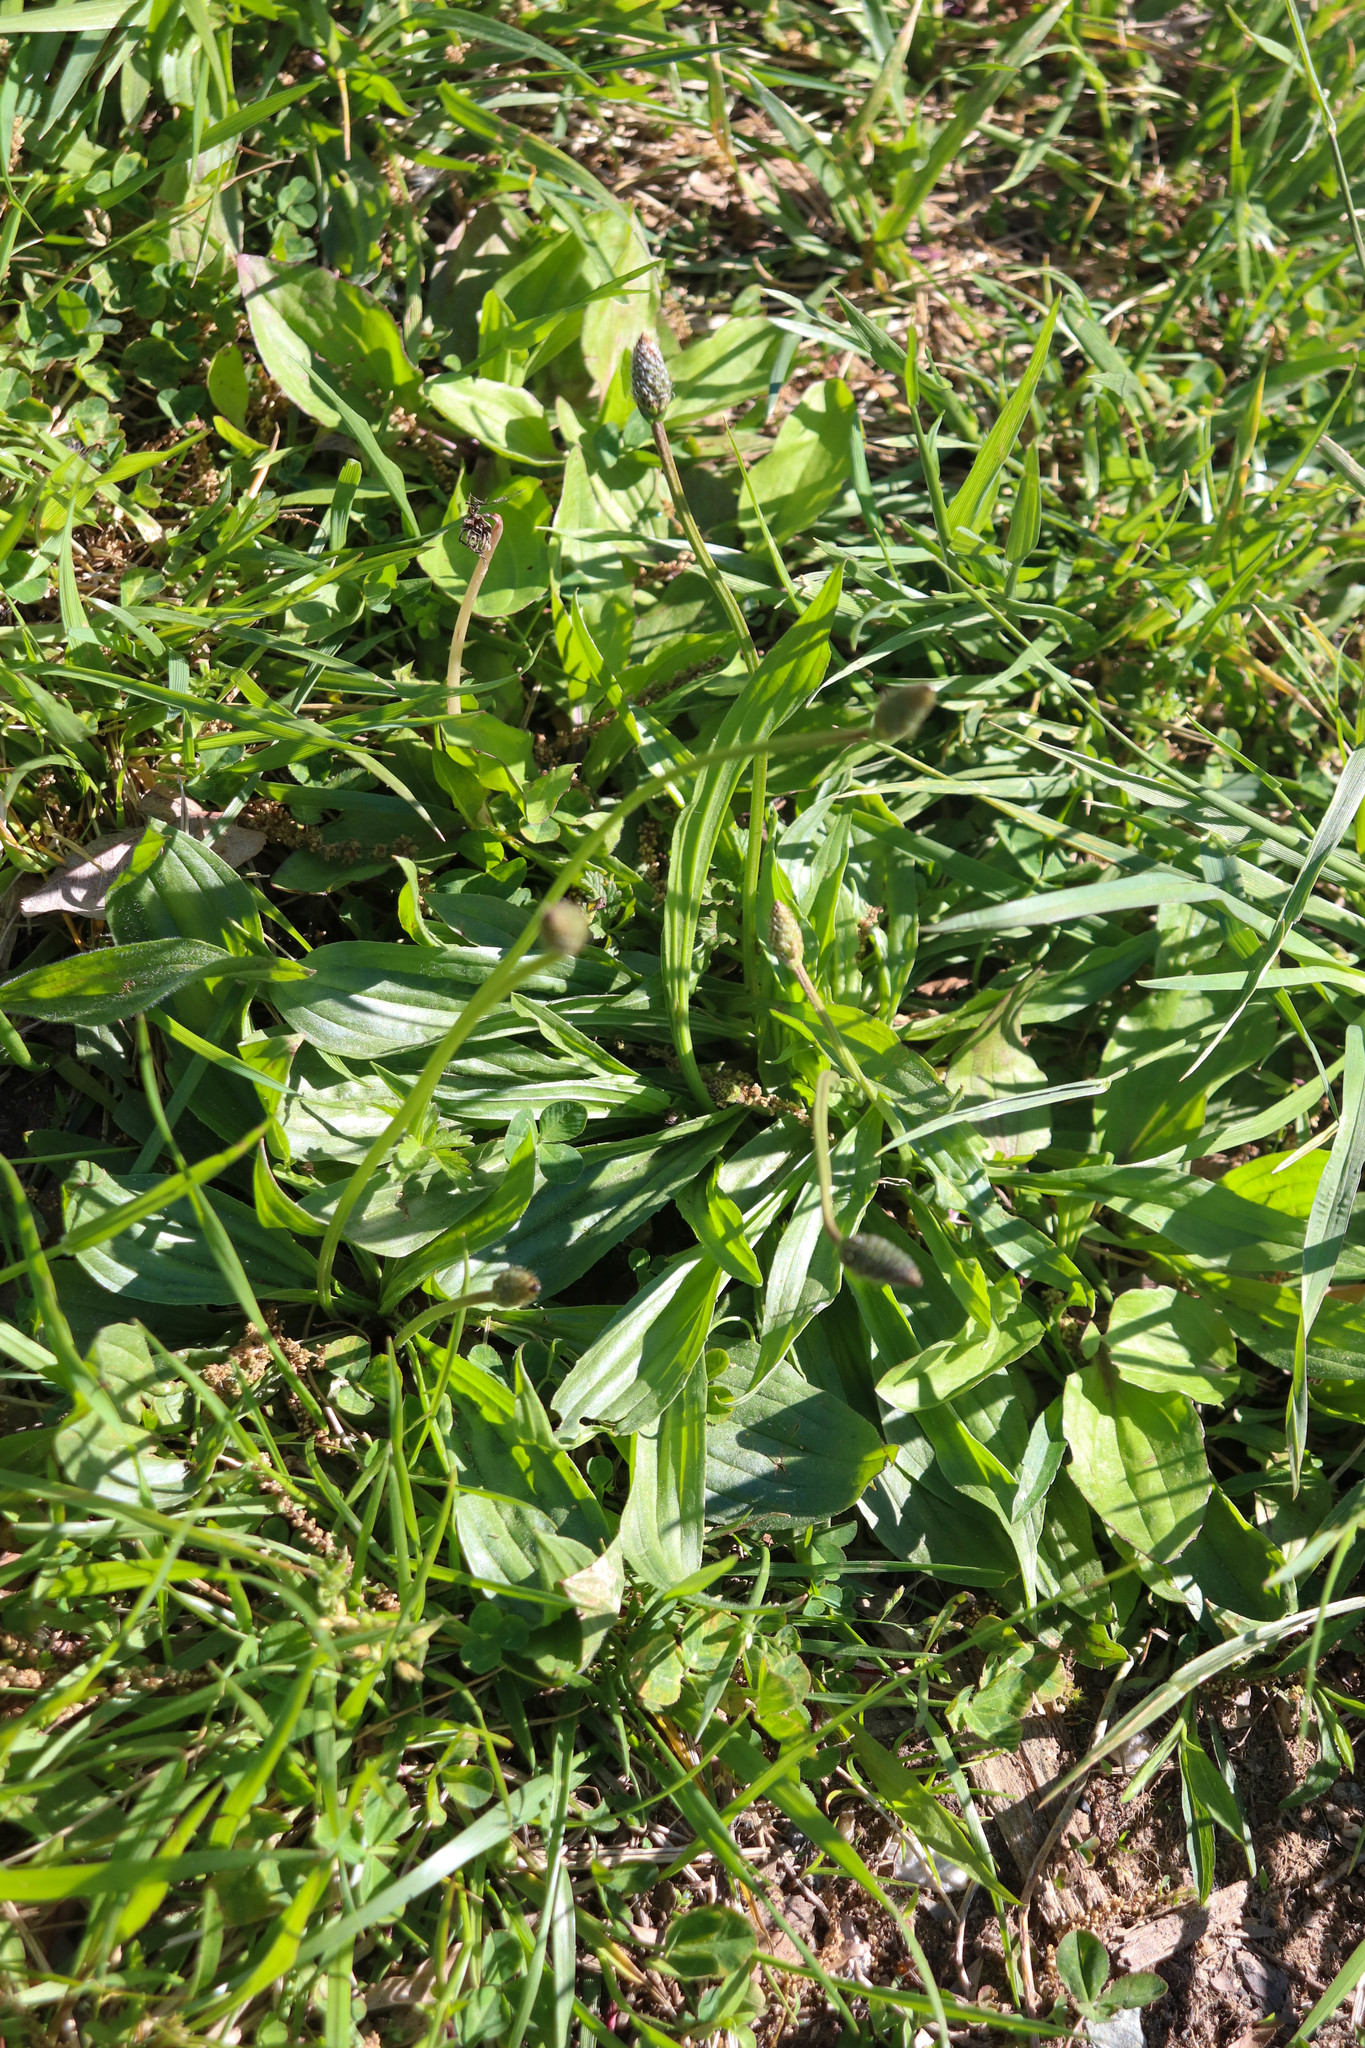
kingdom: Plantae
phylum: Tracheophyta
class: Magnoliopsida
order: Lamiales
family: Plantaginaceae
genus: Plantago
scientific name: Plantago lanceolata
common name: Ribwort plantain
